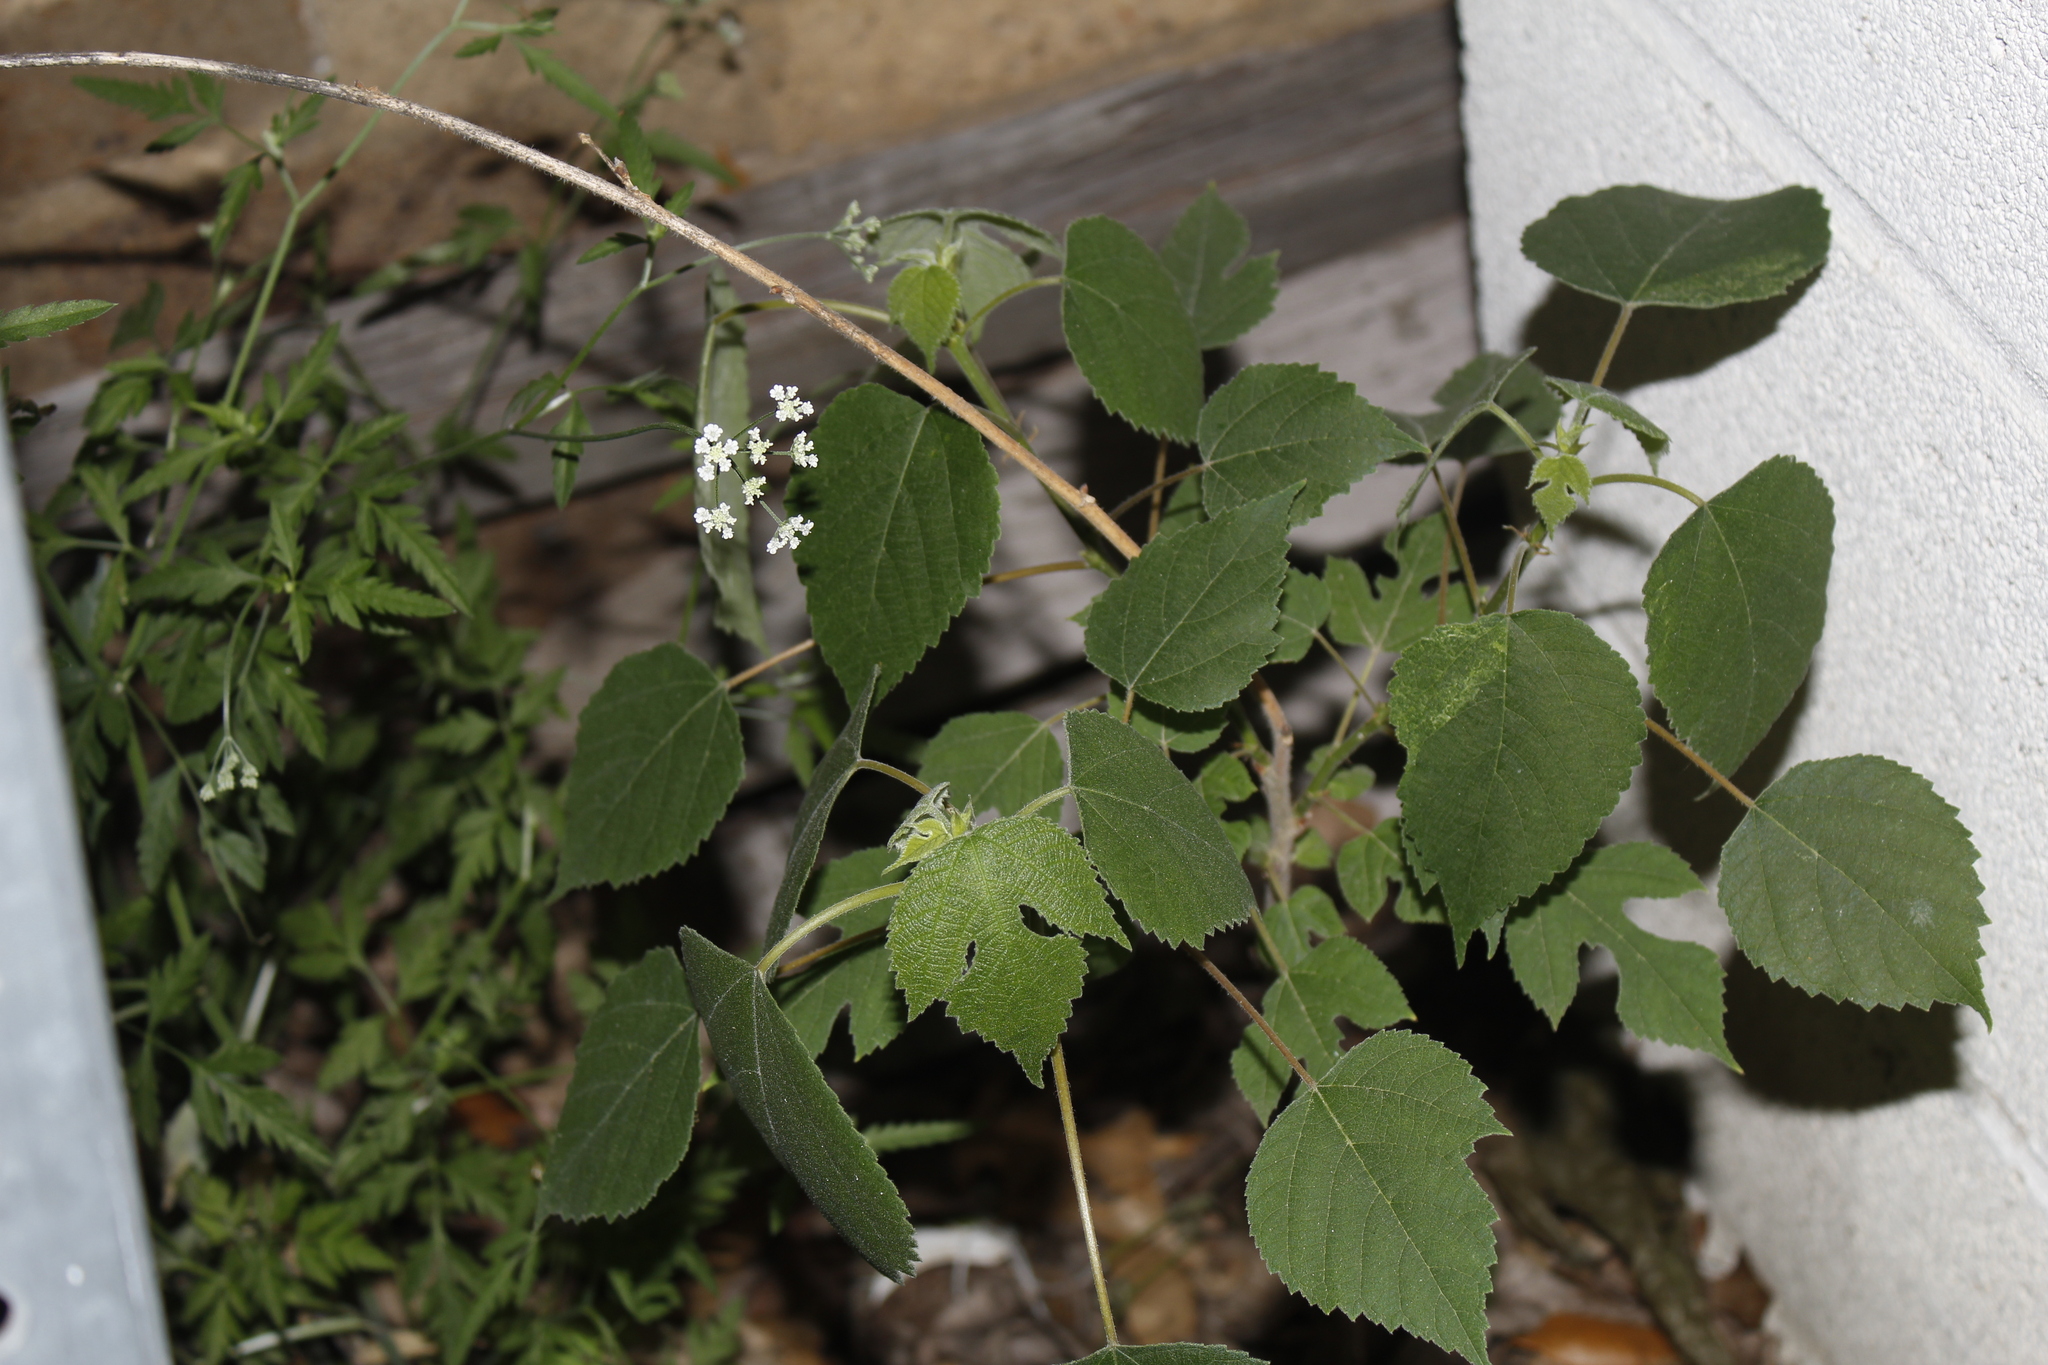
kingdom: Plantae
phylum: Tracheophyta
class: Magnoliopsida
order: Rosales
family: Moraceae
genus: Broussonetia
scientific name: Broussonetia papyrifera
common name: Paper mulberry
